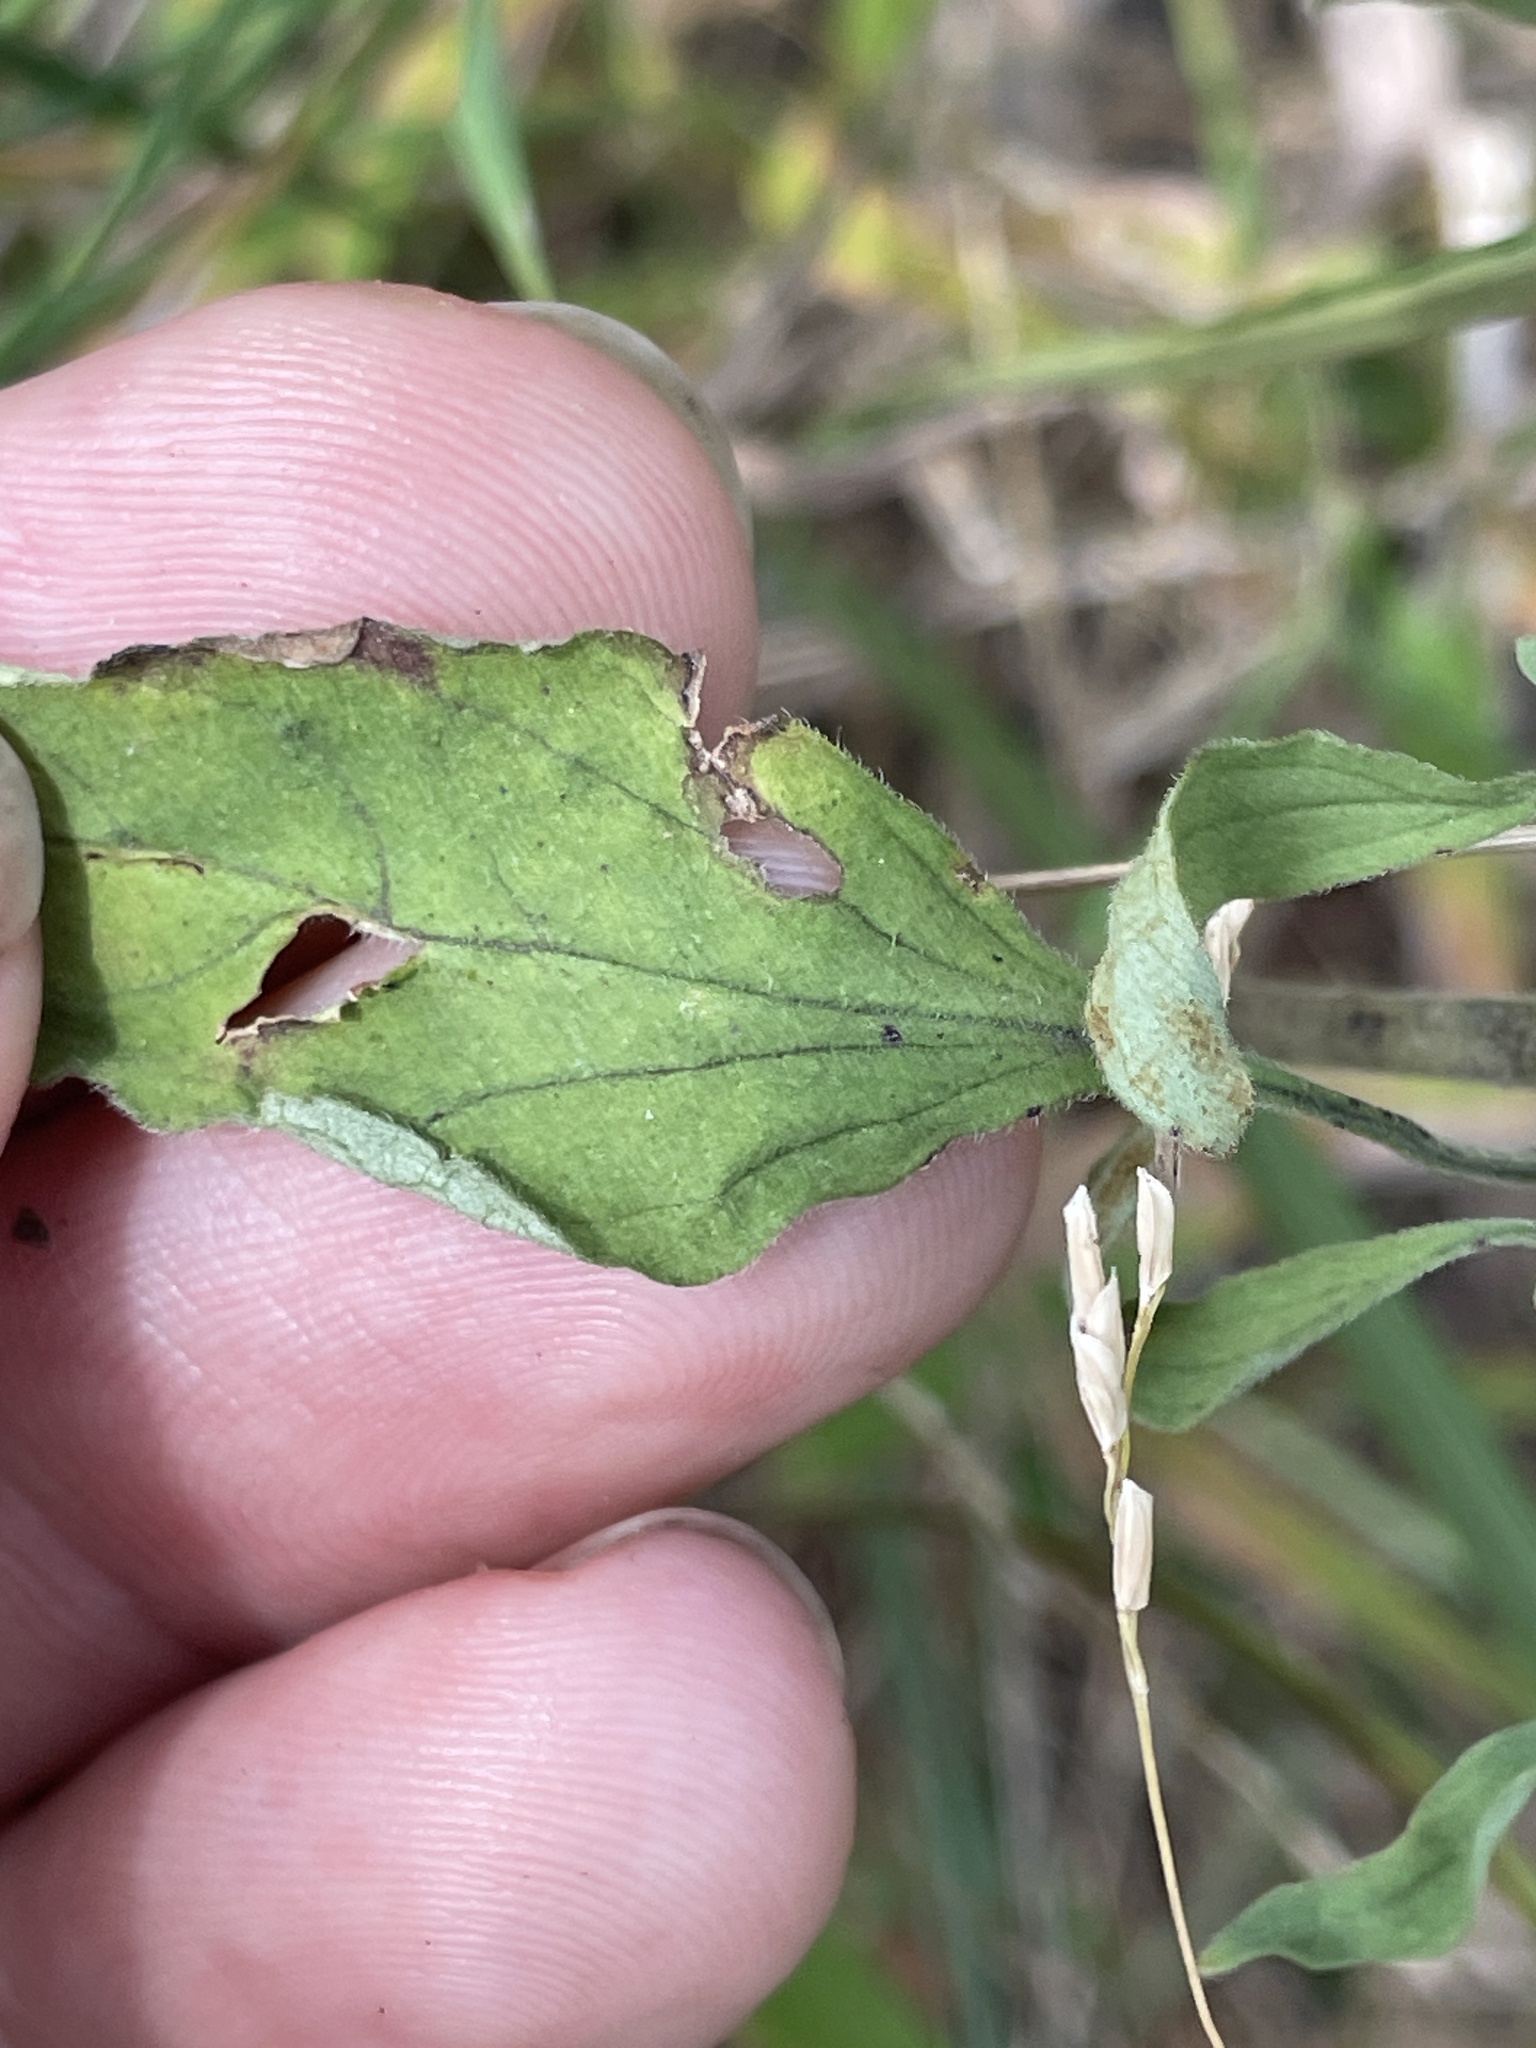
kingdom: Plantae
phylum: Tracheophyta
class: Magnoliopsida
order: Lamiales
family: Lamiaceae
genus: Scutellaria
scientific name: Scutellaria integrifolia
